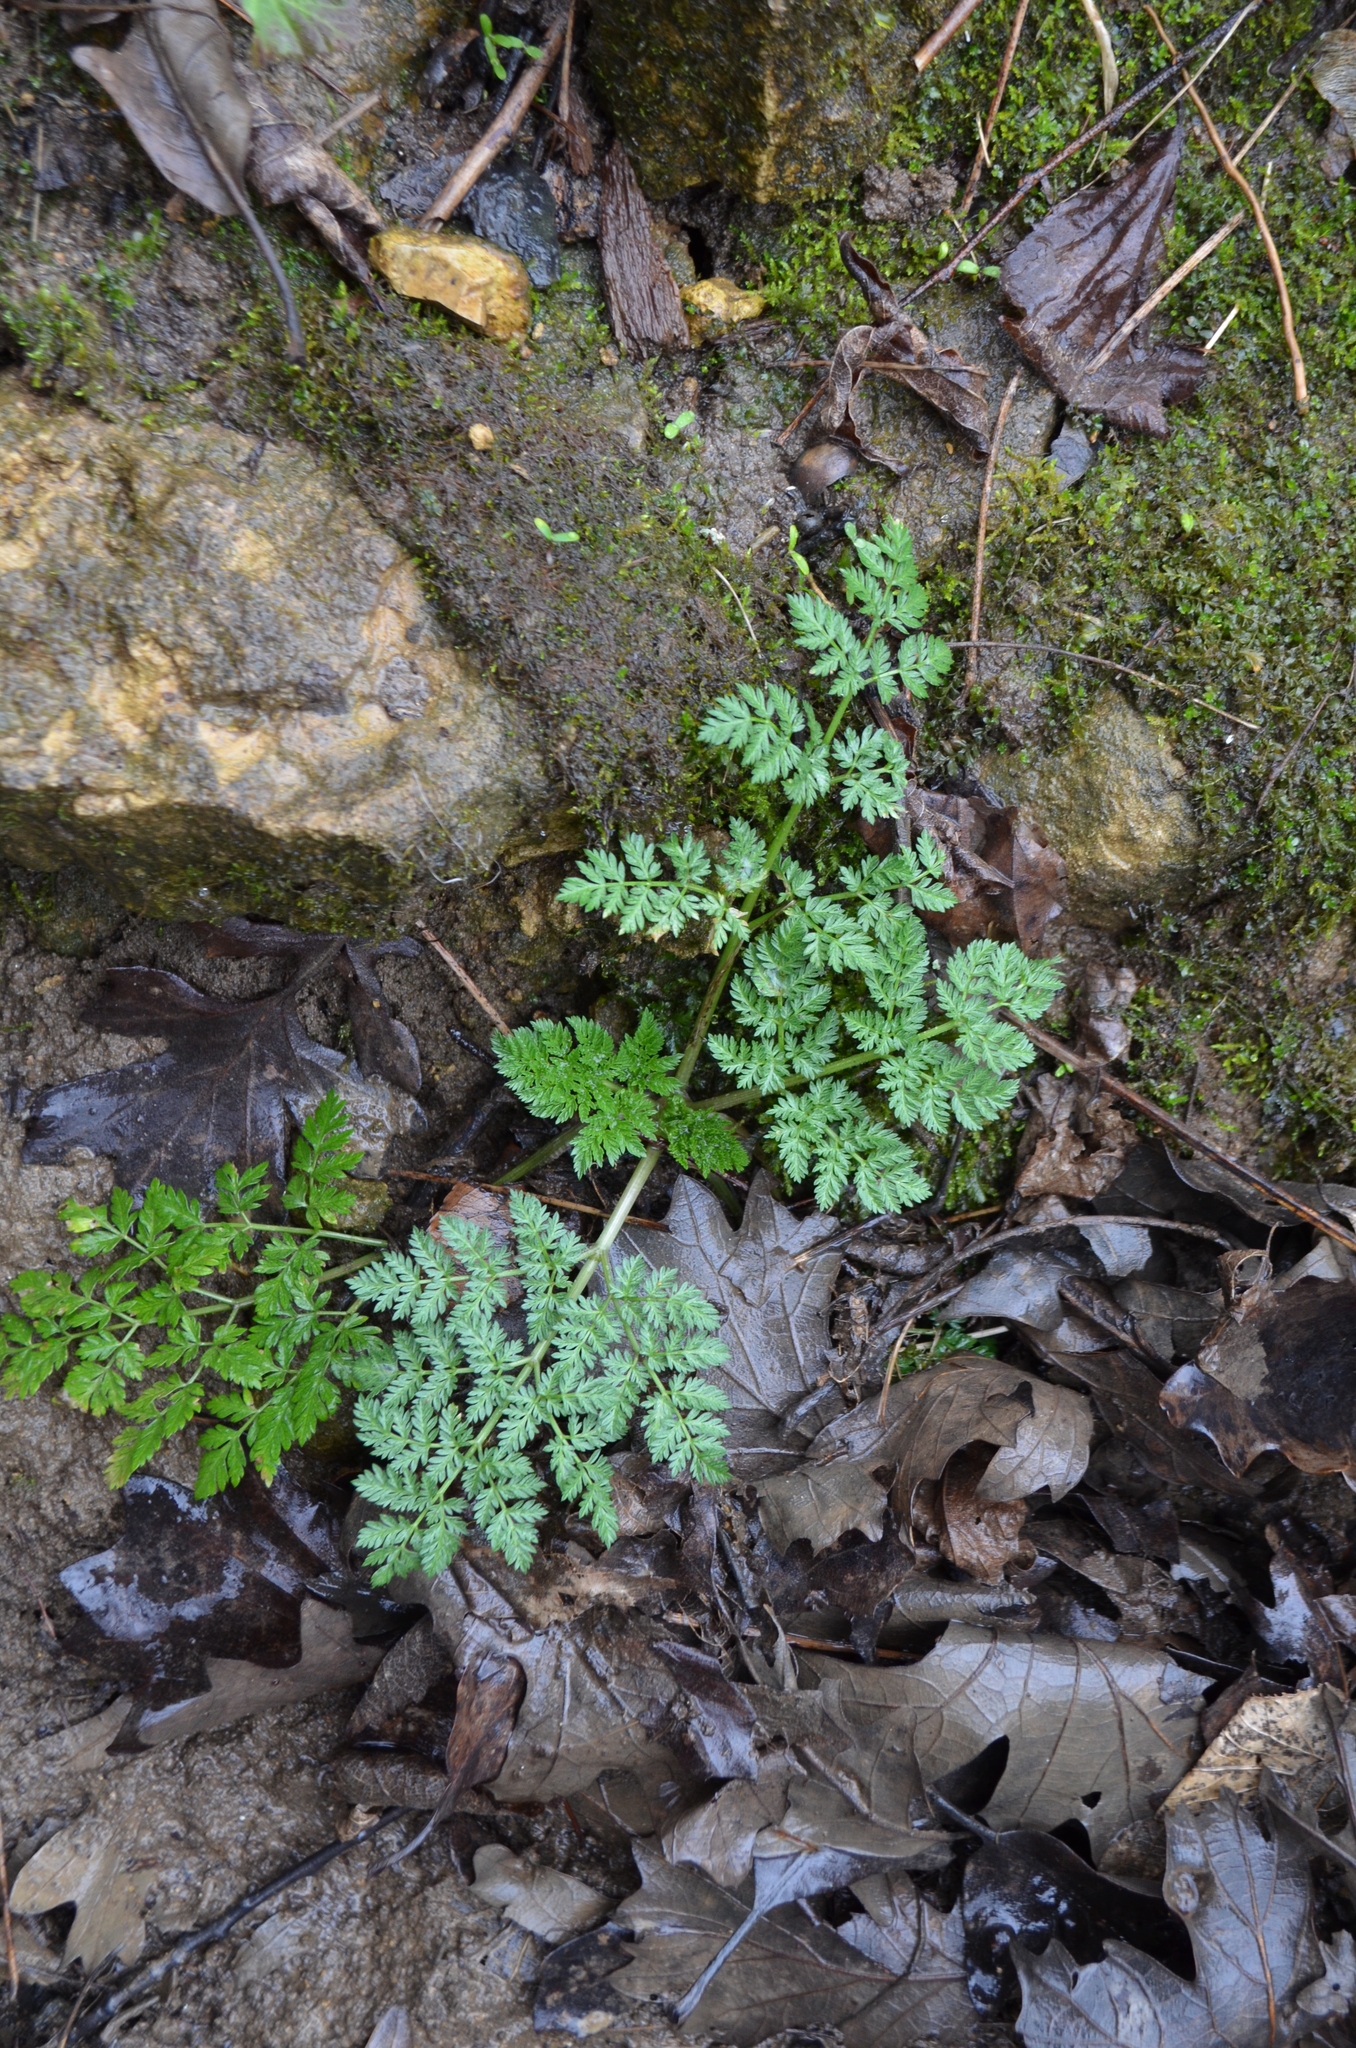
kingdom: Plantae
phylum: Tracheophyta
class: Magnoliopsida
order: Apiales
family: Apiaceae
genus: Conium
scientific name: Conium maculatum
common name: Hemlock
